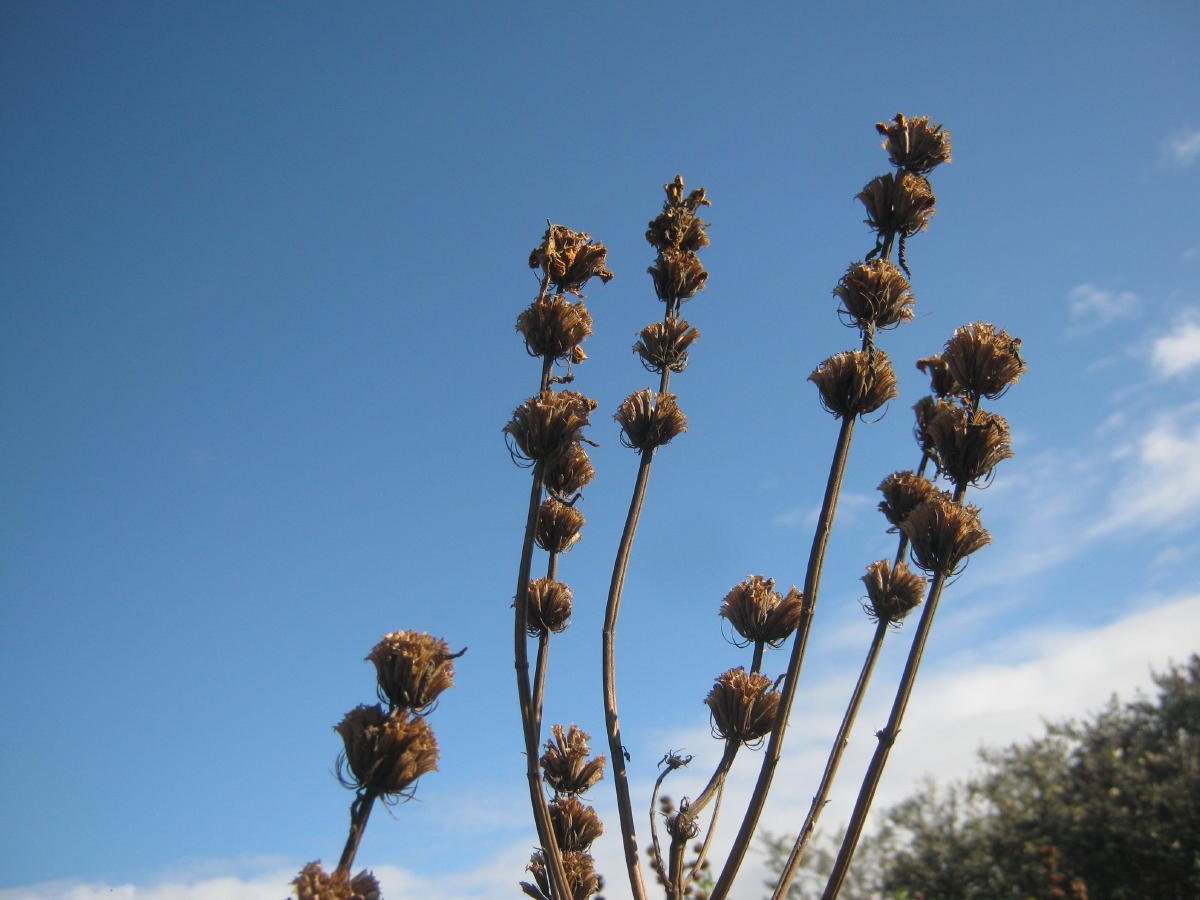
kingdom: Plantae
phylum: Tracheophyta
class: Magnoliopsida
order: Lamiales
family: Lamiaceae
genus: Leonotis
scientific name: Leonotis leonurus
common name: Lion's ear
